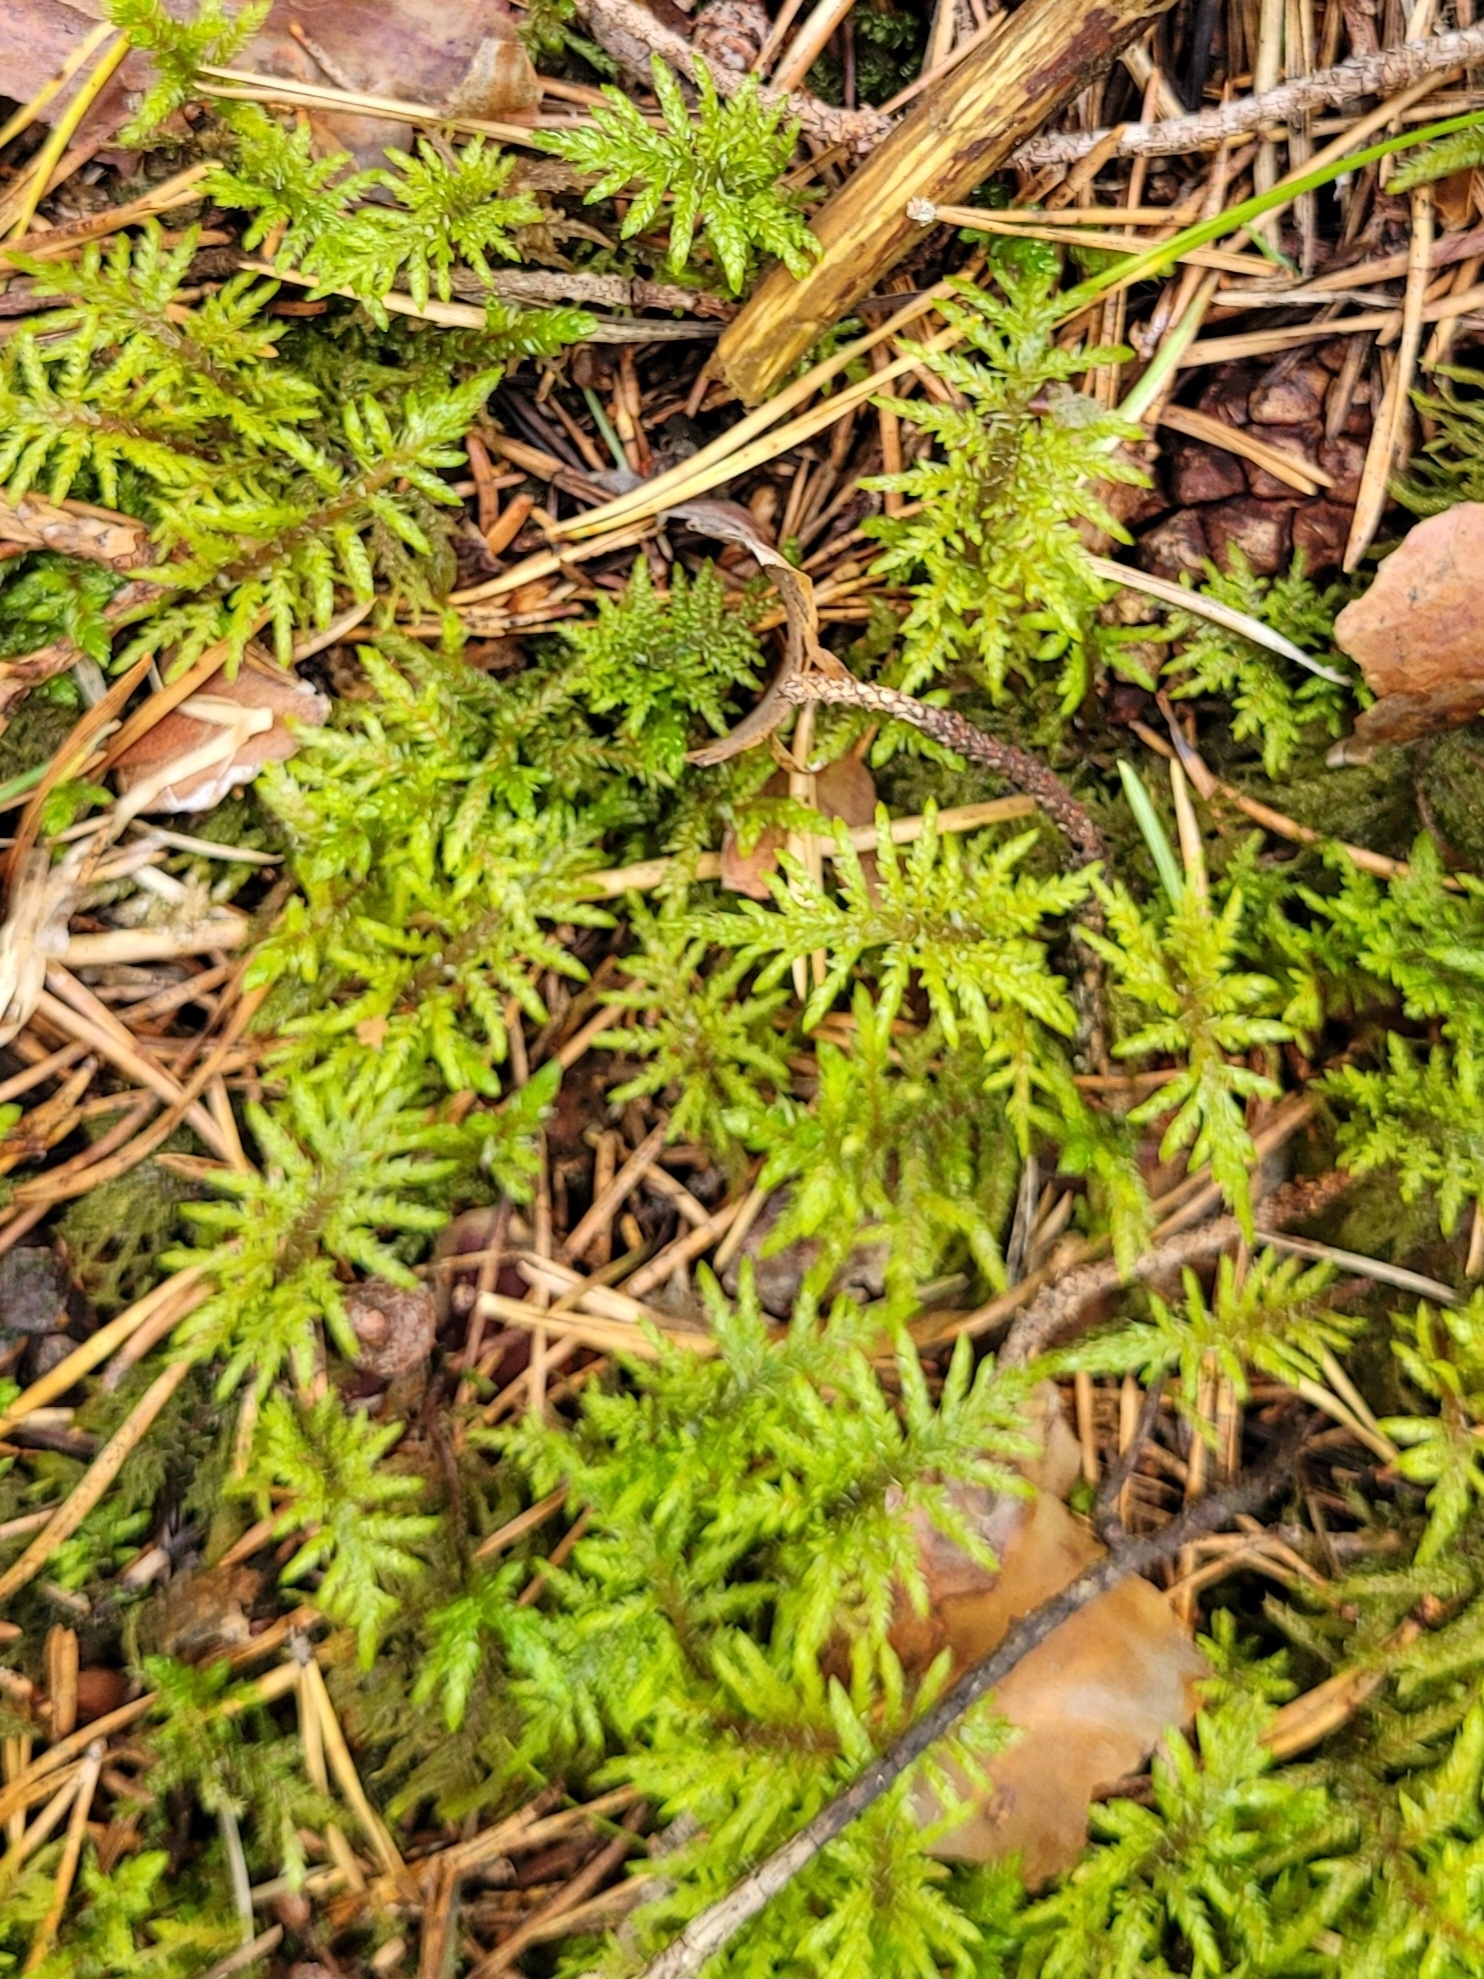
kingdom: Plantae
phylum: Bryophyta
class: Bryopsida
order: Hypnales
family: Hylocomiaceae
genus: Hylocomium
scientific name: Hylocomium splendens
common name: Stairstep moss
